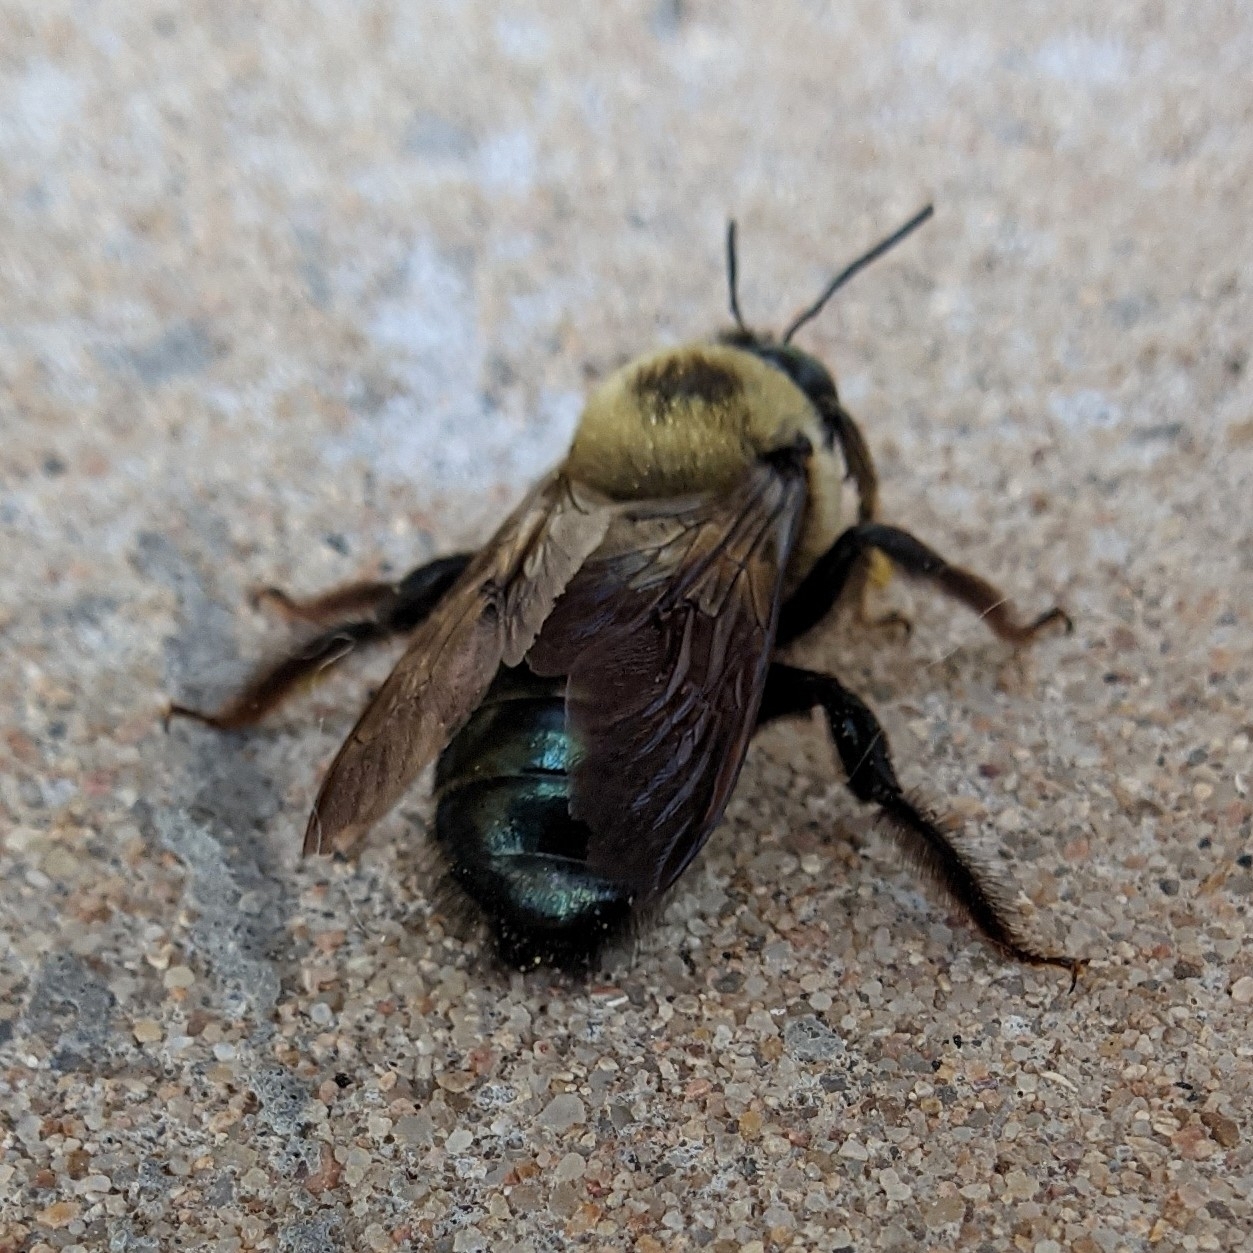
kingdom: Animalia
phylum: Arthropoda
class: Insecta
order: Hymenoptera
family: Apidae
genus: Xylocopa
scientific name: Xylocopa virginica
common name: Carpenter bee
